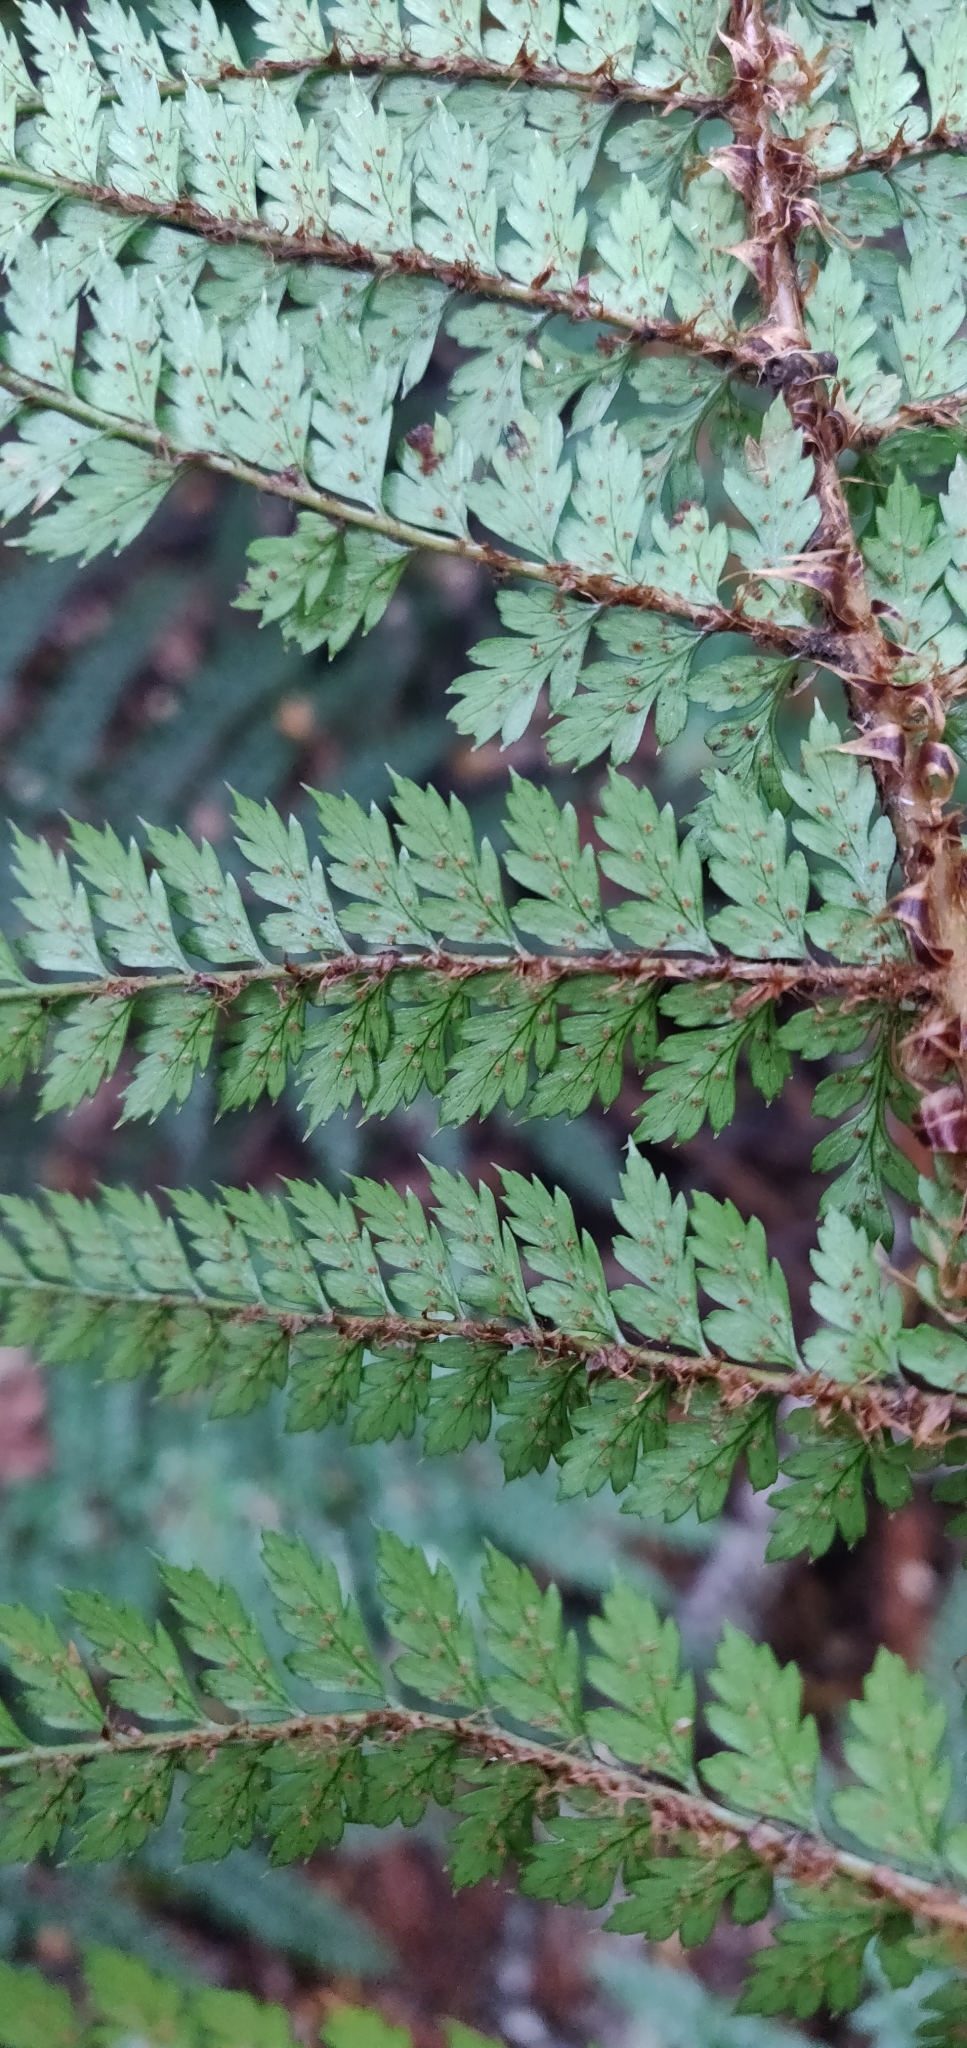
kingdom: Plantae
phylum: Tracheophyta
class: Polypodiopsida
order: Polypodiales
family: Dryopteridaceae
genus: Polystichum
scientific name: Polystichum vestitum
